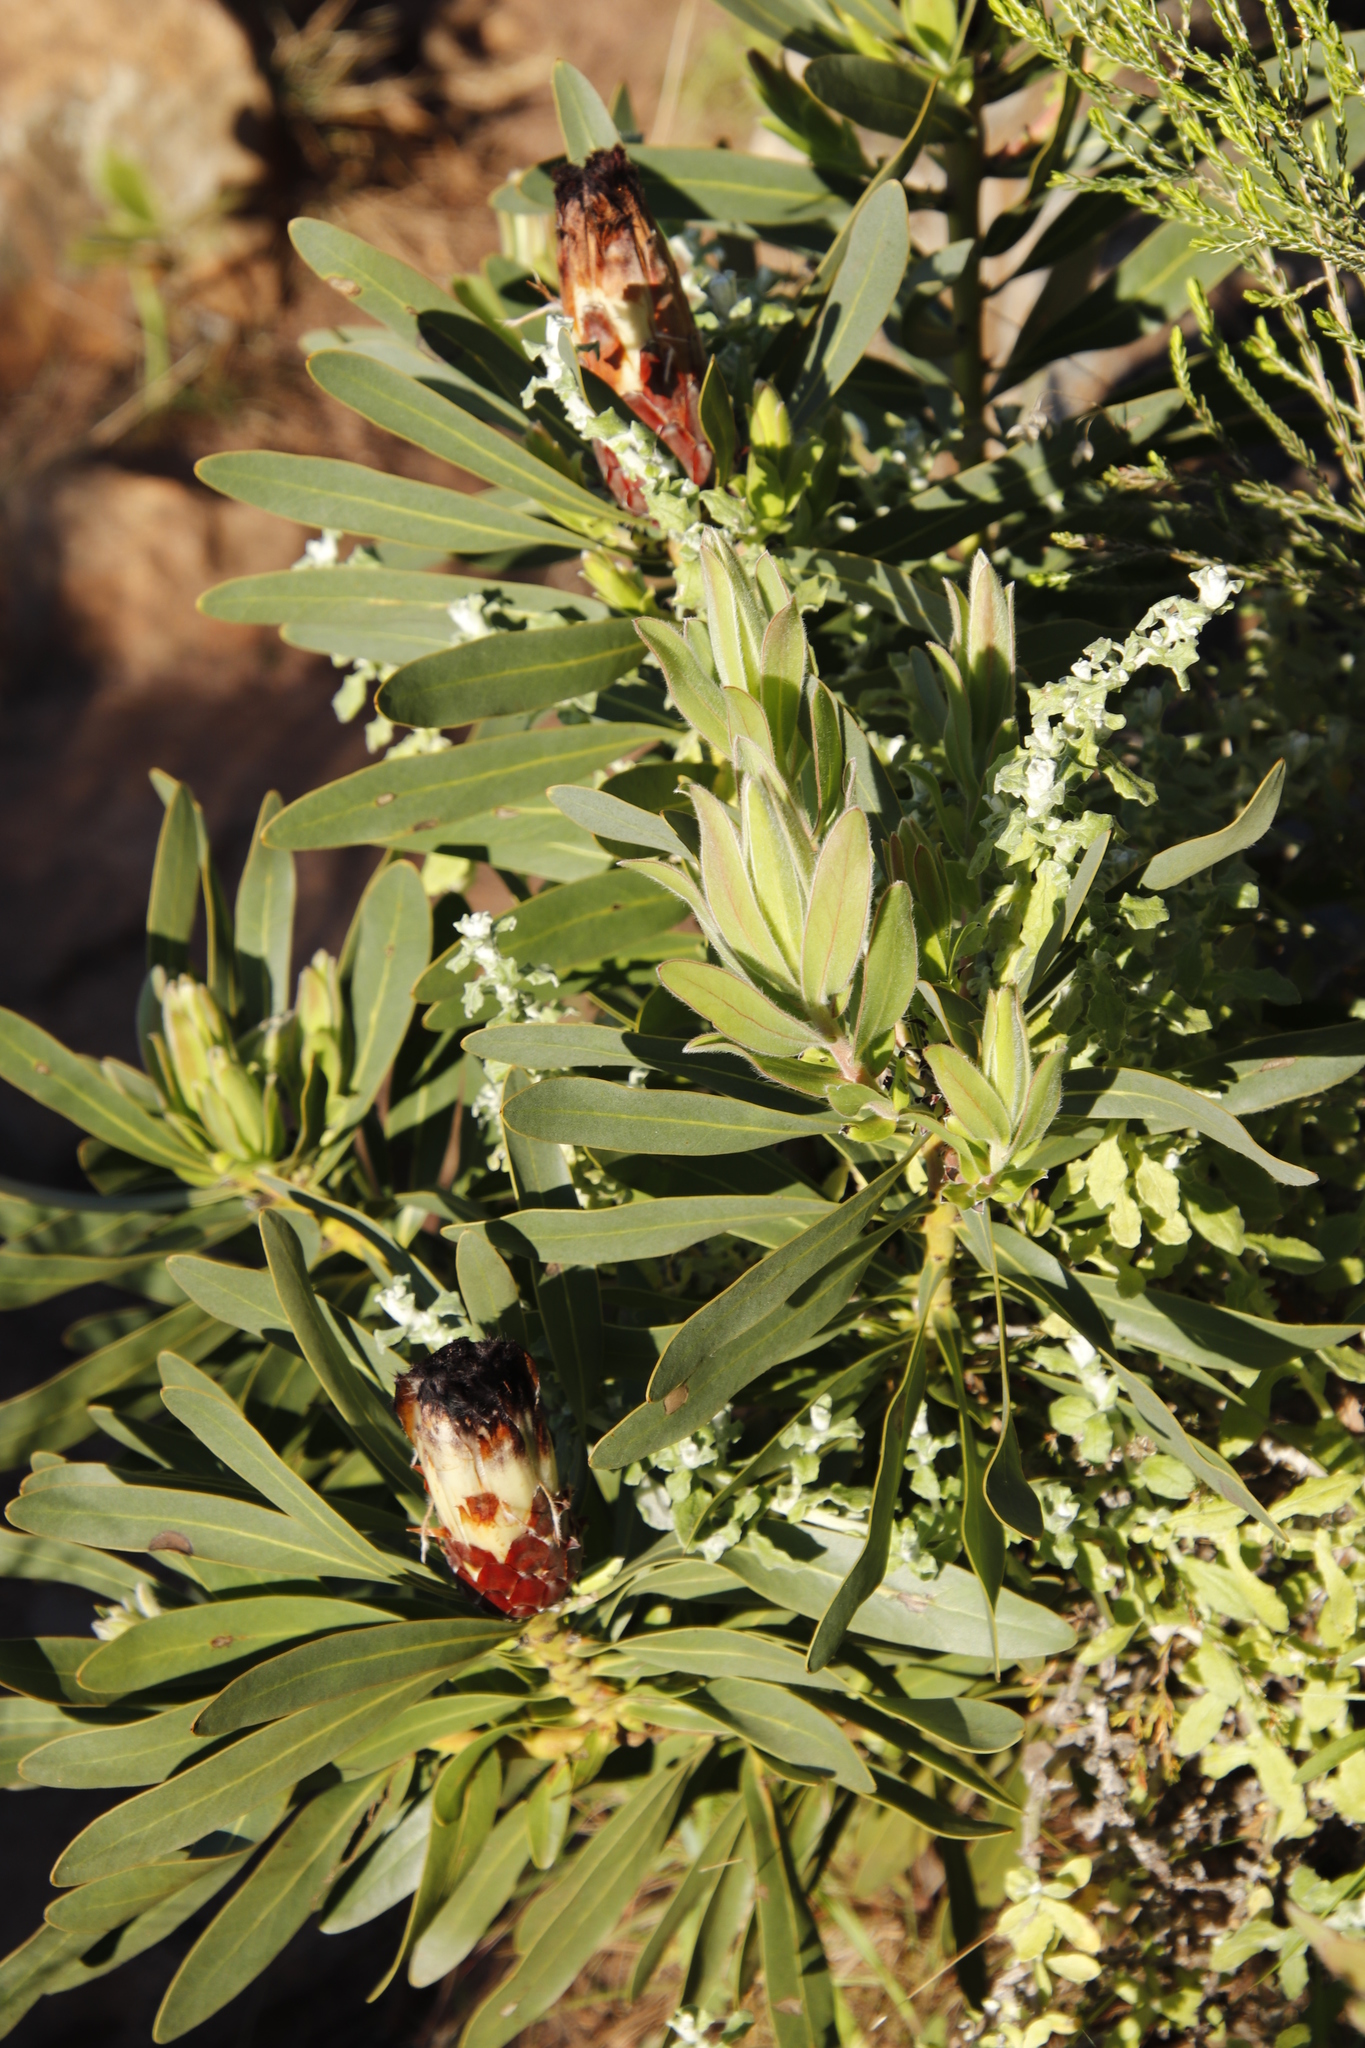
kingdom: Plantae
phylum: Tracheophyta
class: Magnoliopsida
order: Proteales
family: Proteaceae
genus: Protea
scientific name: Protea lepidocarpodendron
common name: Black-bearded protea
